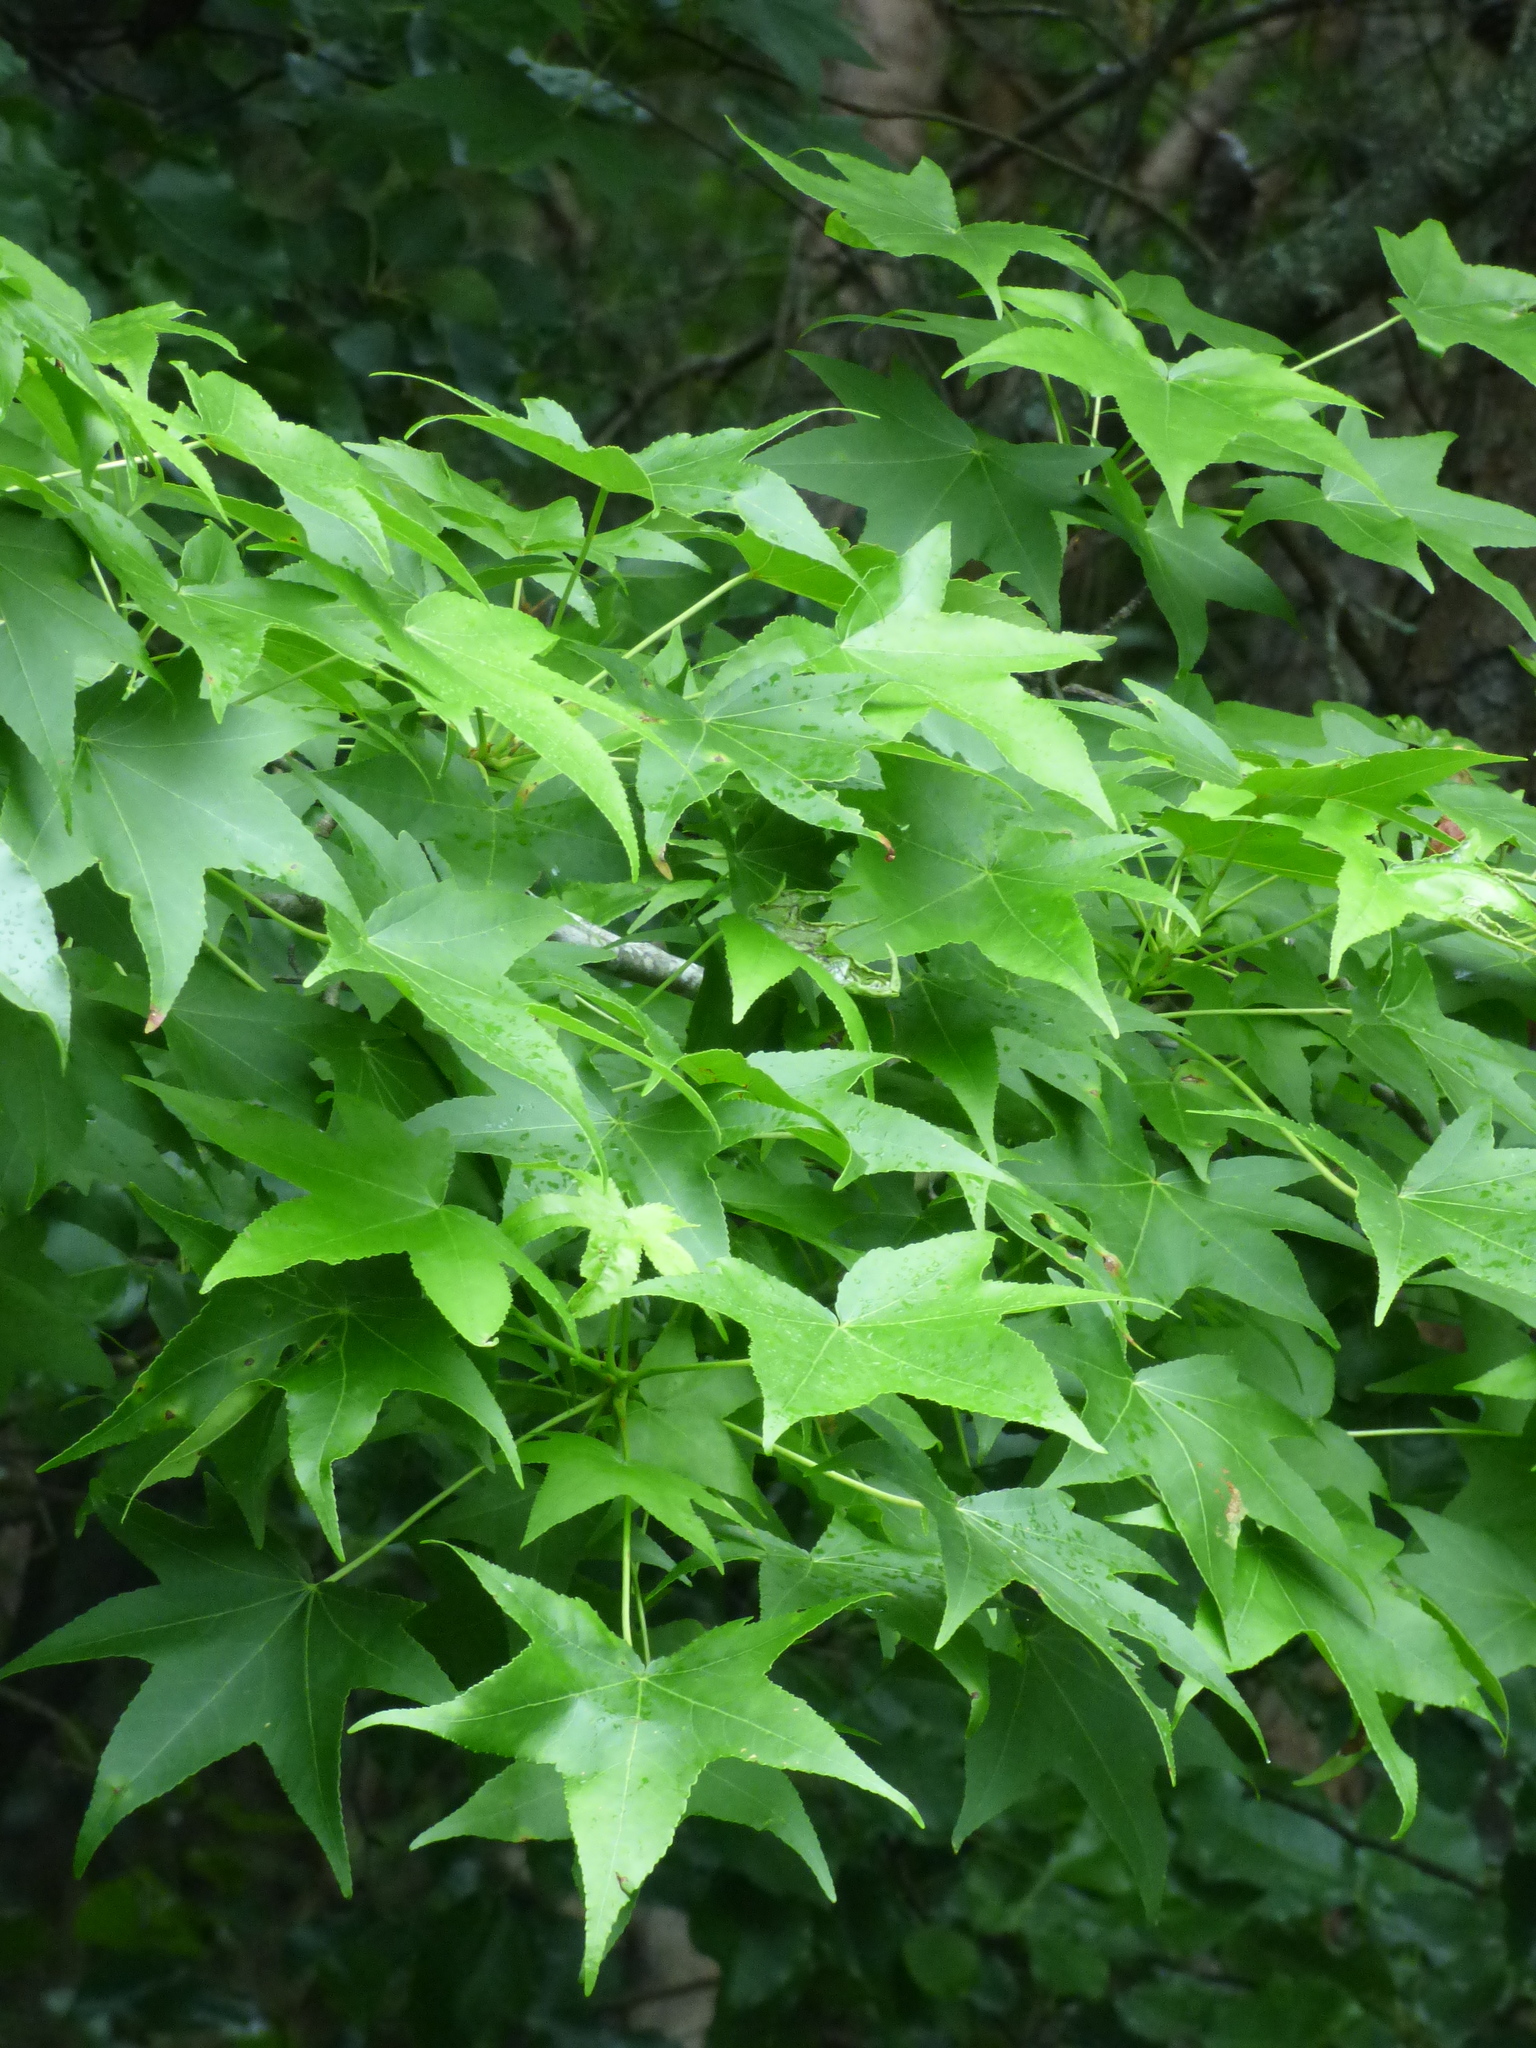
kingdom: Plantae
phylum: Tracheophyta
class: Magnoliopsida
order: Saxifragales
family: Altingiaceae
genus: Liquidambar
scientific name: Liquidambar styraciflua
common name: Sweet gum
